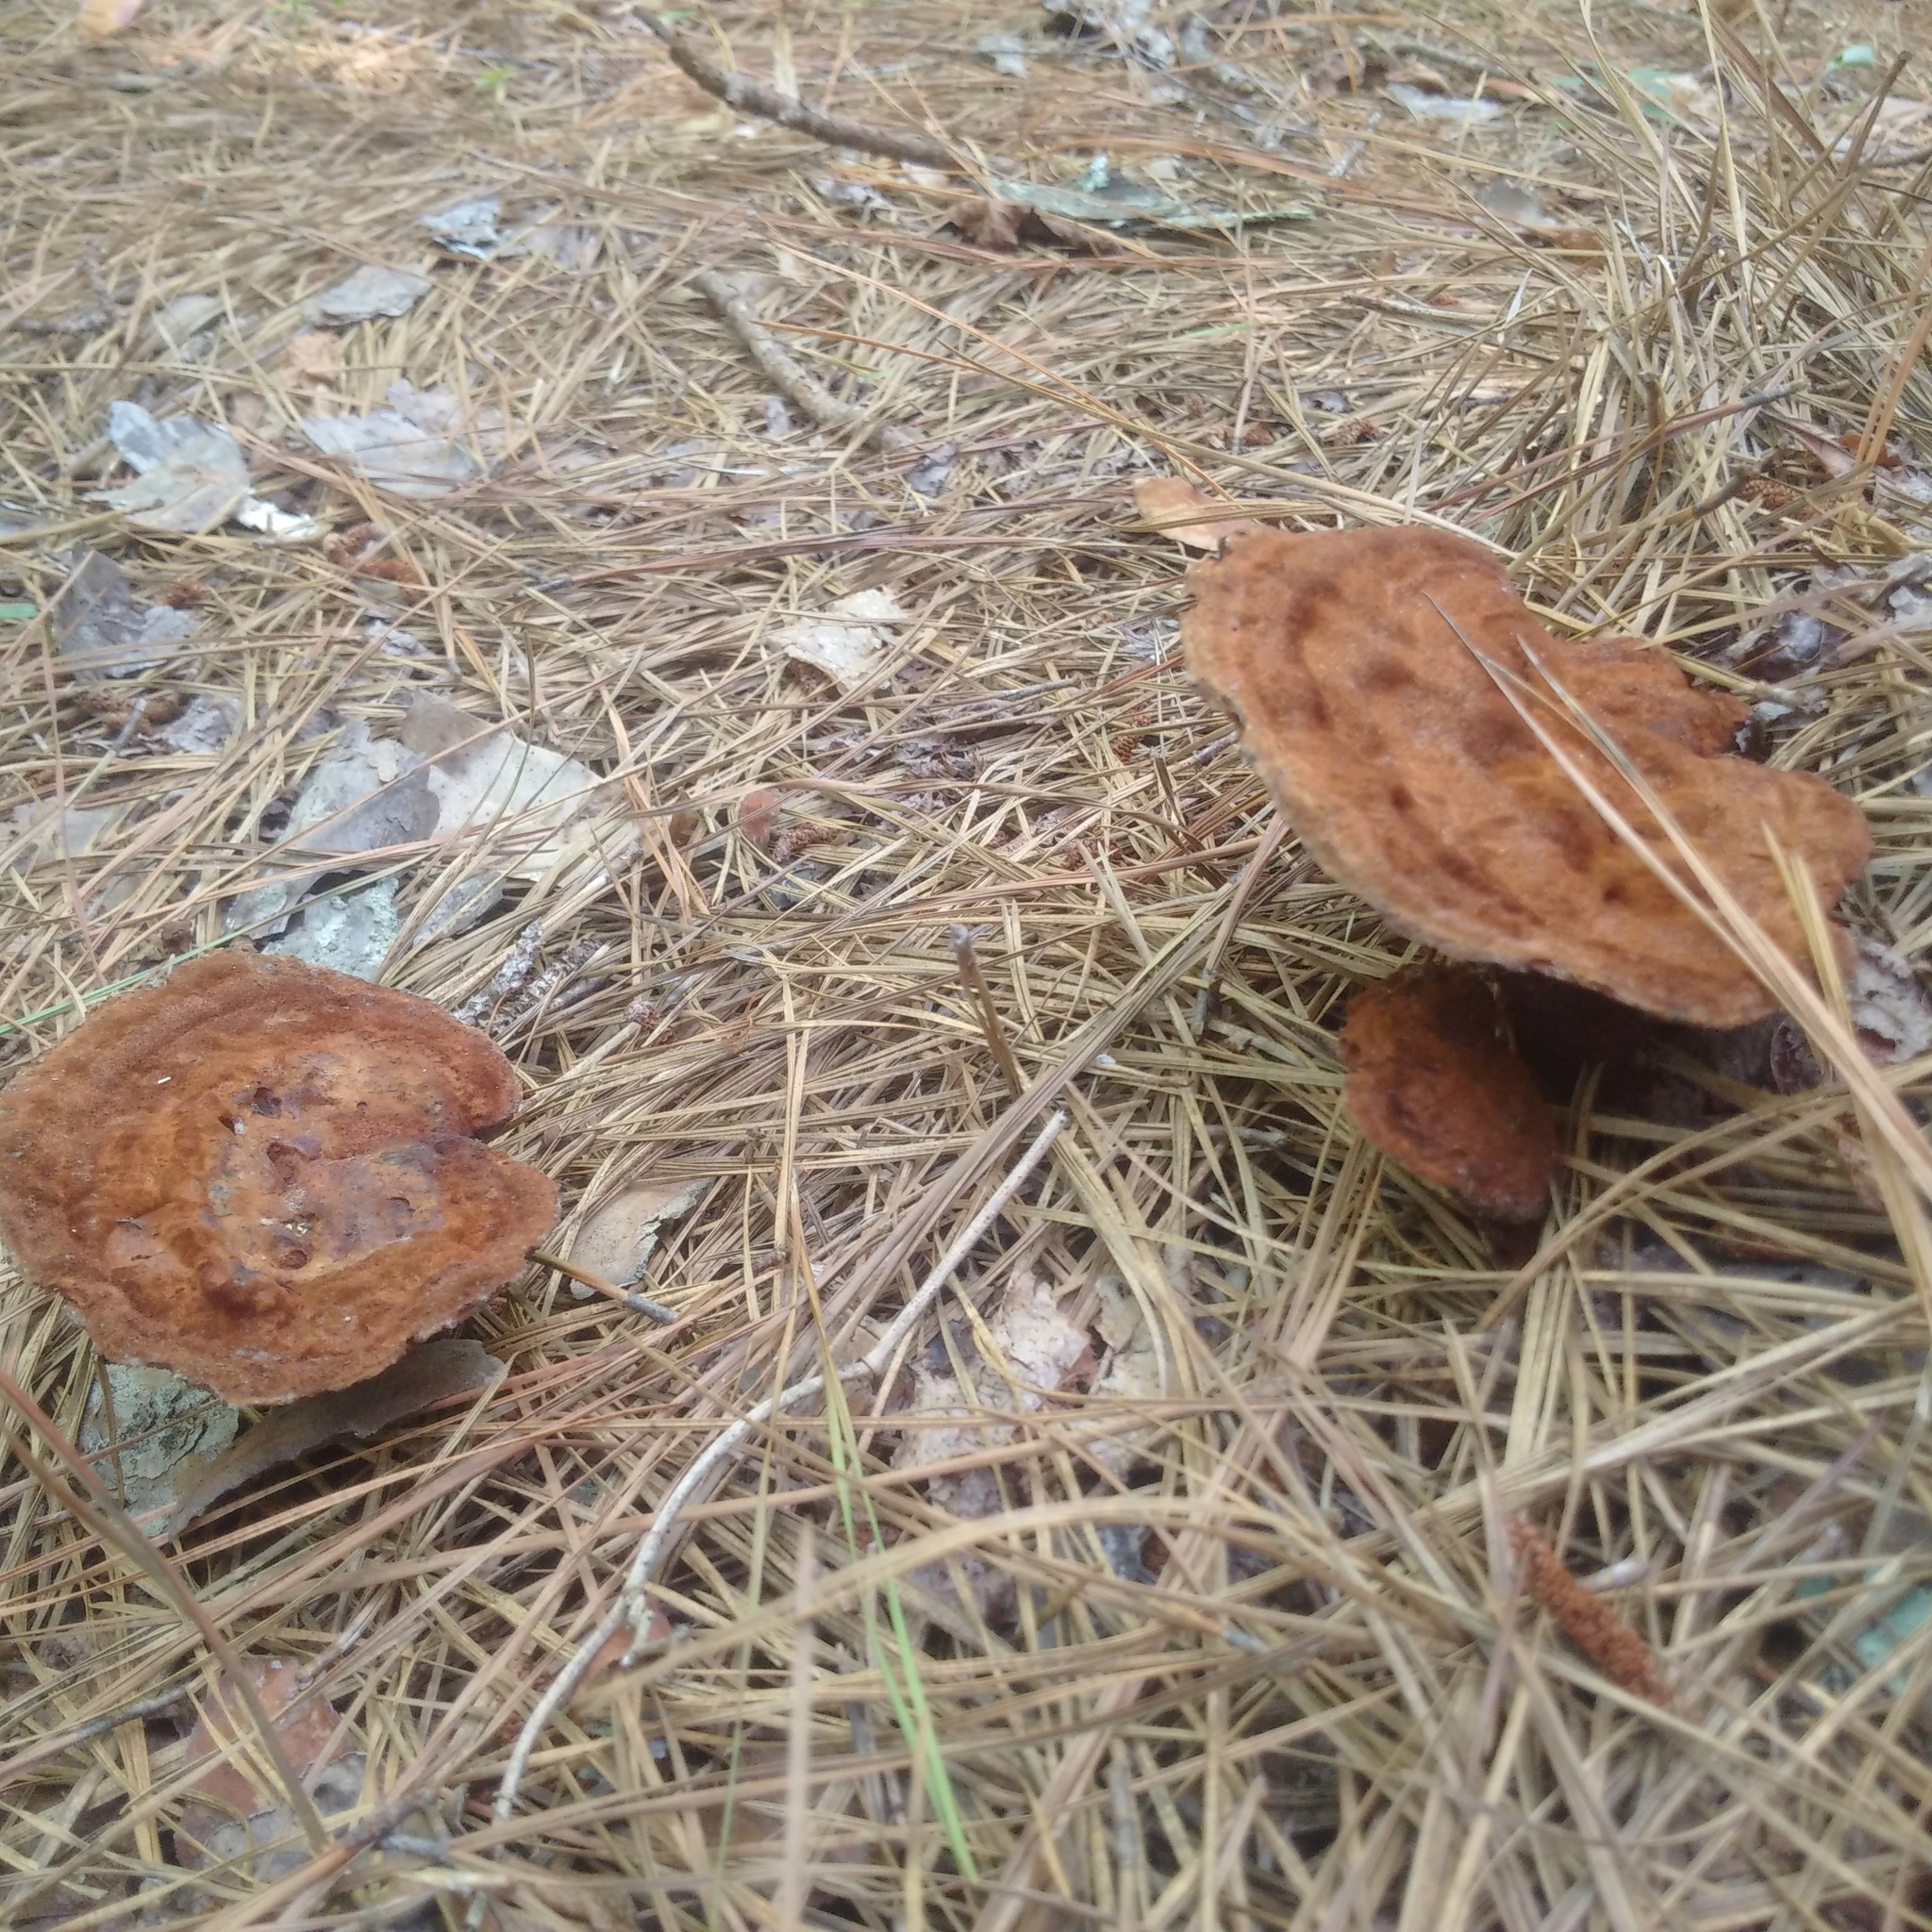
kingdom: Fungi
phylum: Basidiomycota
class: Agaricomycetes
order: Polyporales
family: Laetiporaceae
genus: Phaeolus
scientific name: Phaeolus schweinitzii
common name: Dyer's mazegill
